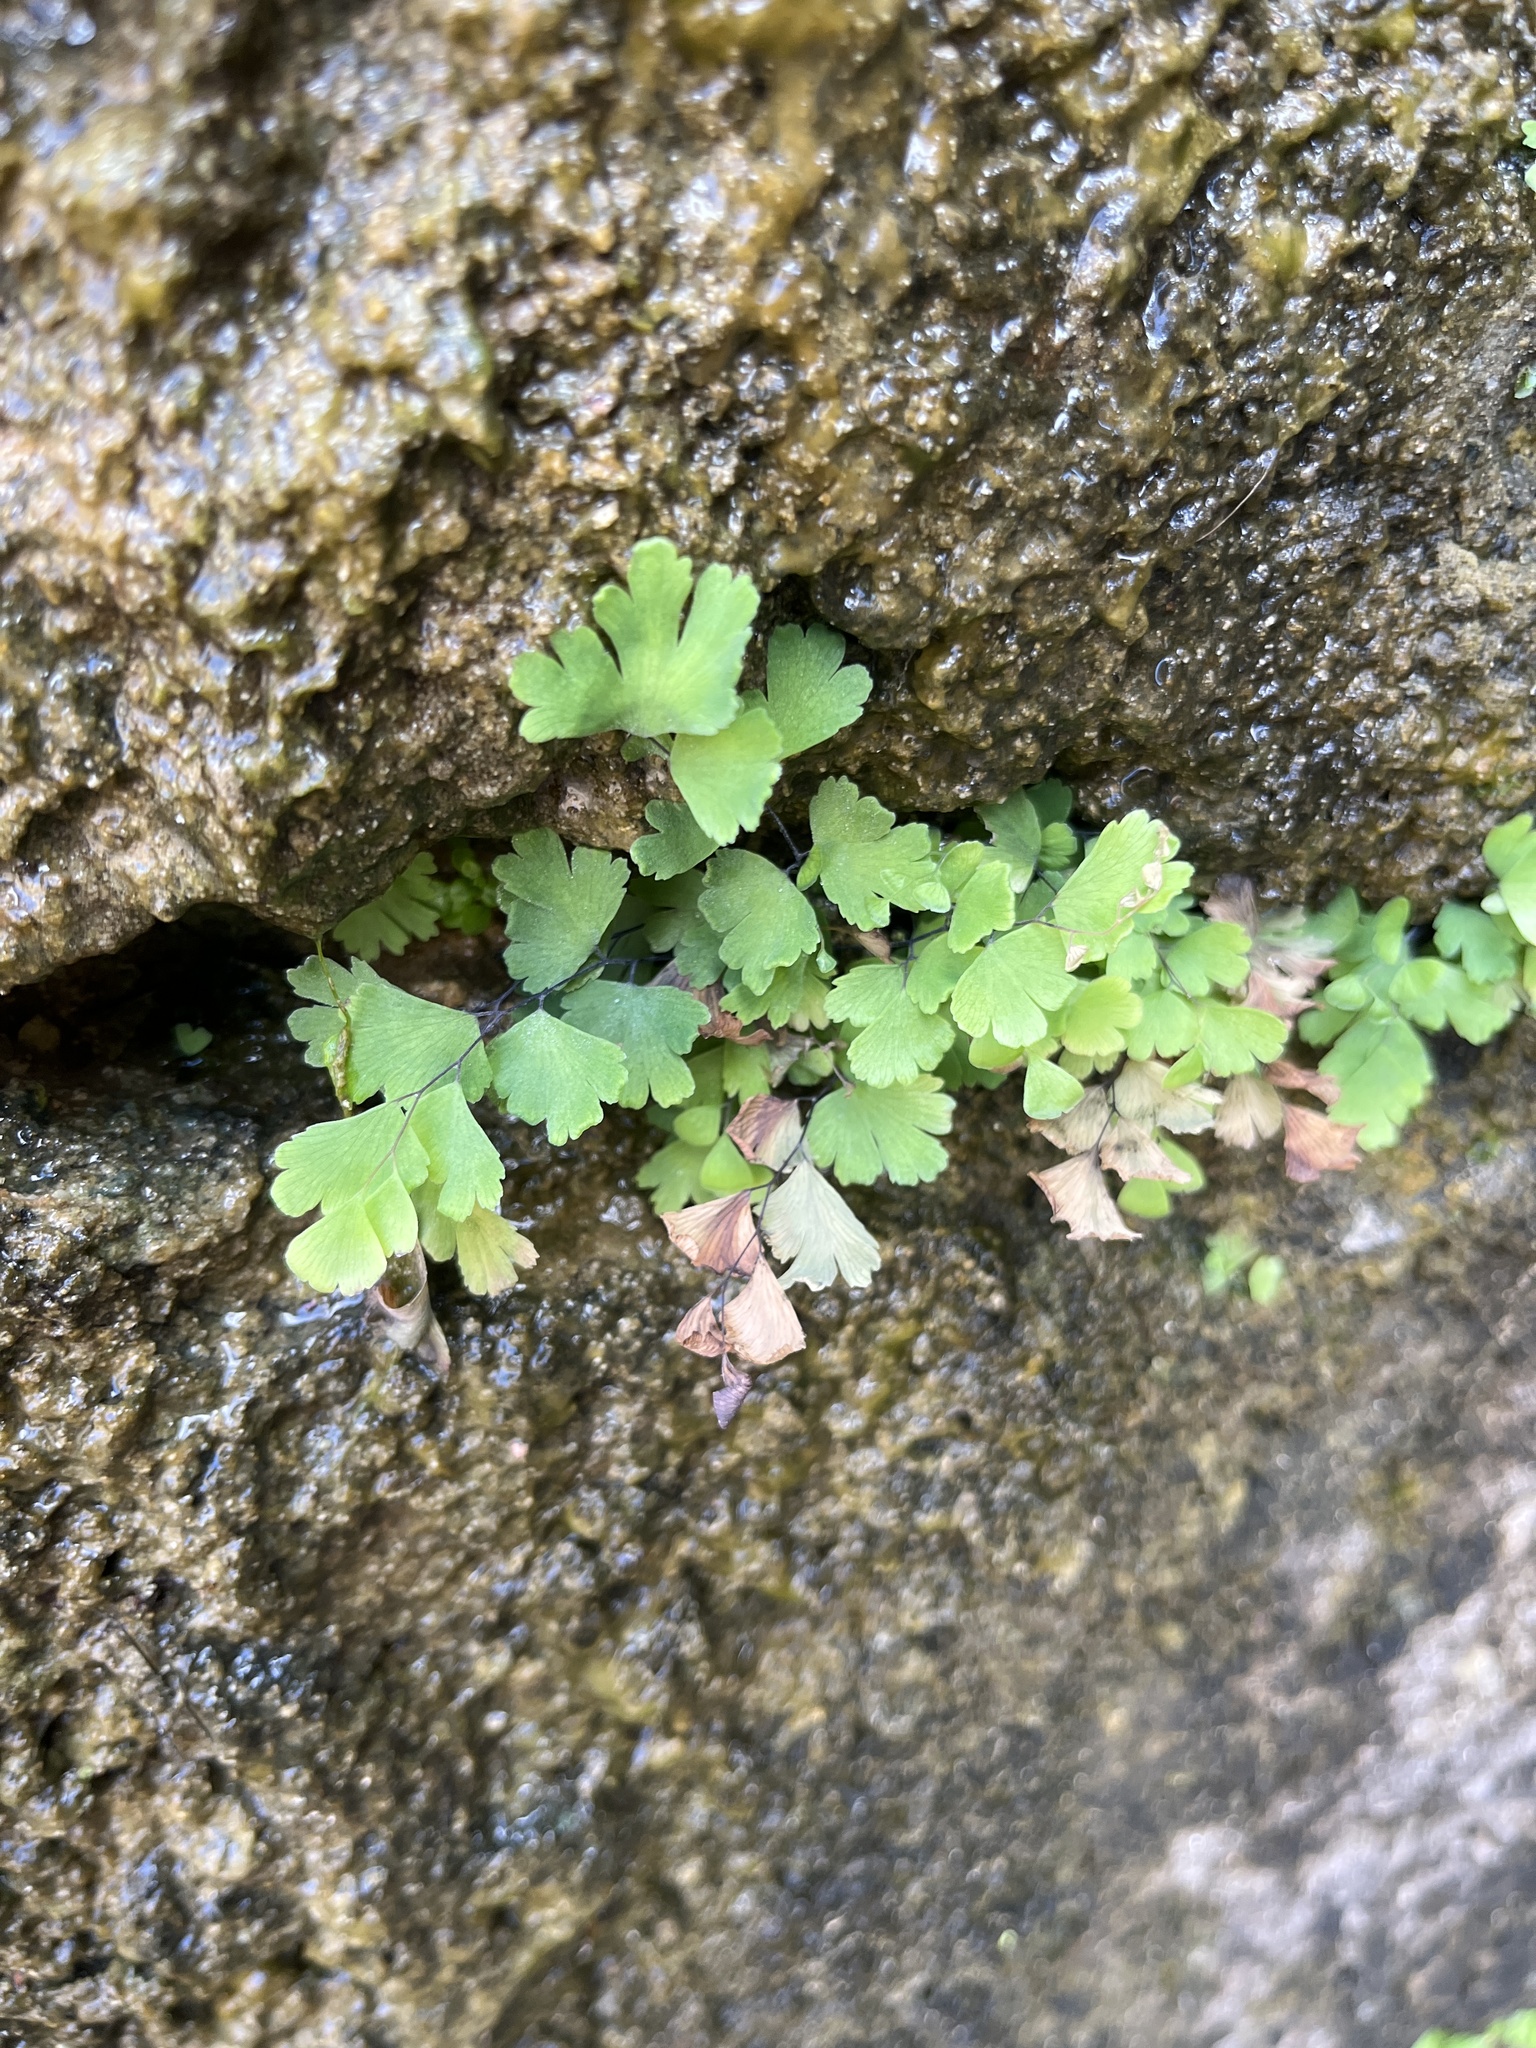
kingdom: Plantae
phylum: Tracheophyta
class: Polypodiopsida
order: Polypodiales
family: Pteridaceae
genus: Adiantum
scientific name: Adiantum capillus-veneris
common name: Maidenhair fern
